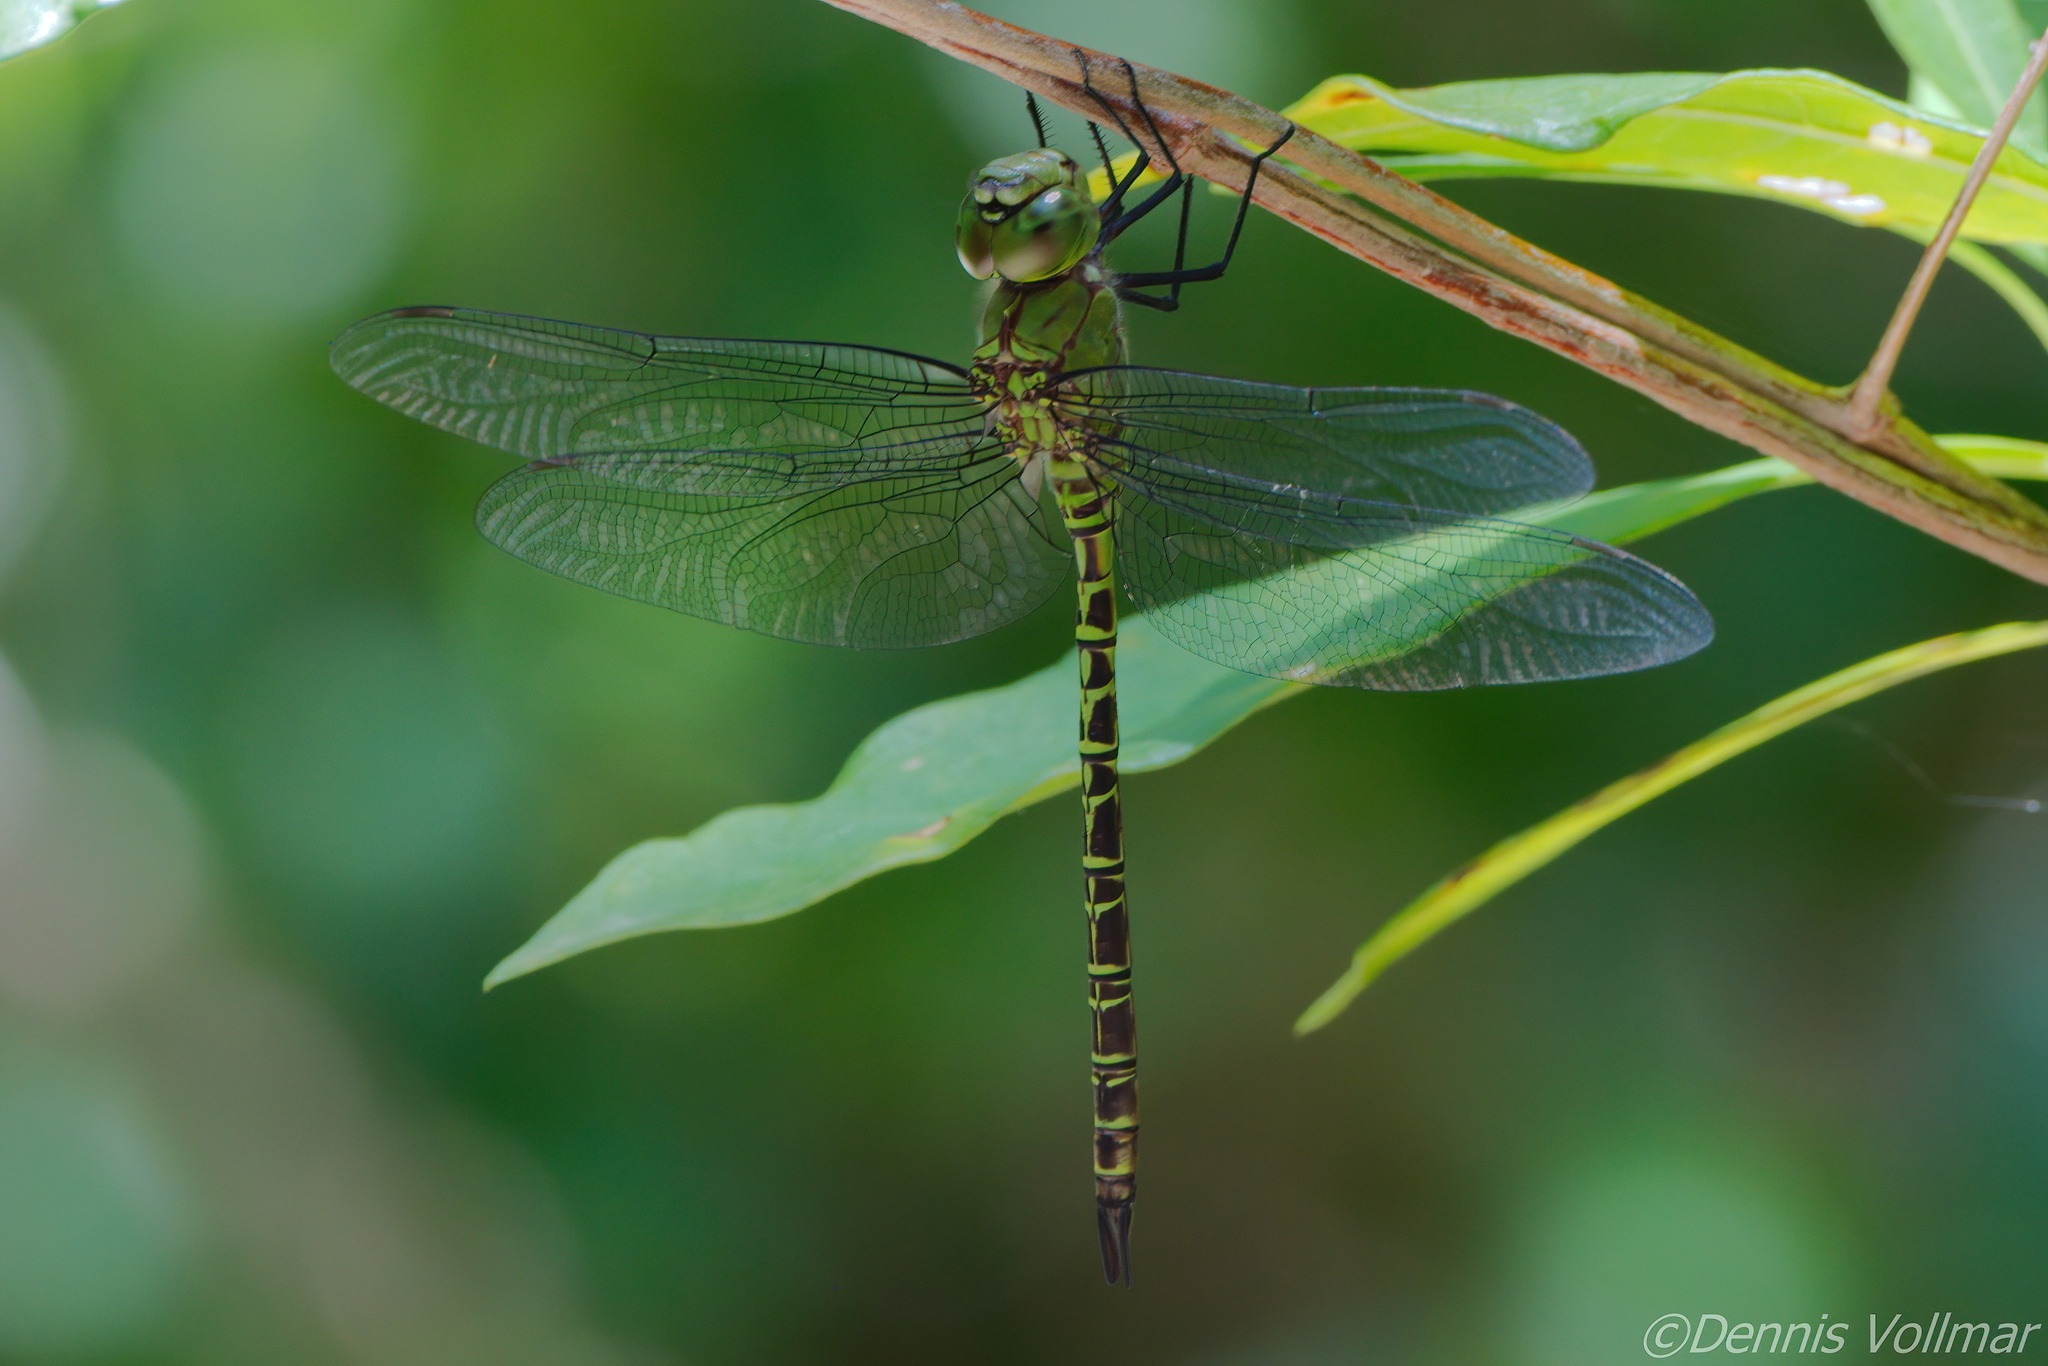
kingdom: Animalia
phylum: Arthropoda
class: Insecta
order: Odonata
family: Aeshnidae
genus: Coryphaeschna
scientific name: Coryphaeschna viriditas
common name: Mangrove darner
